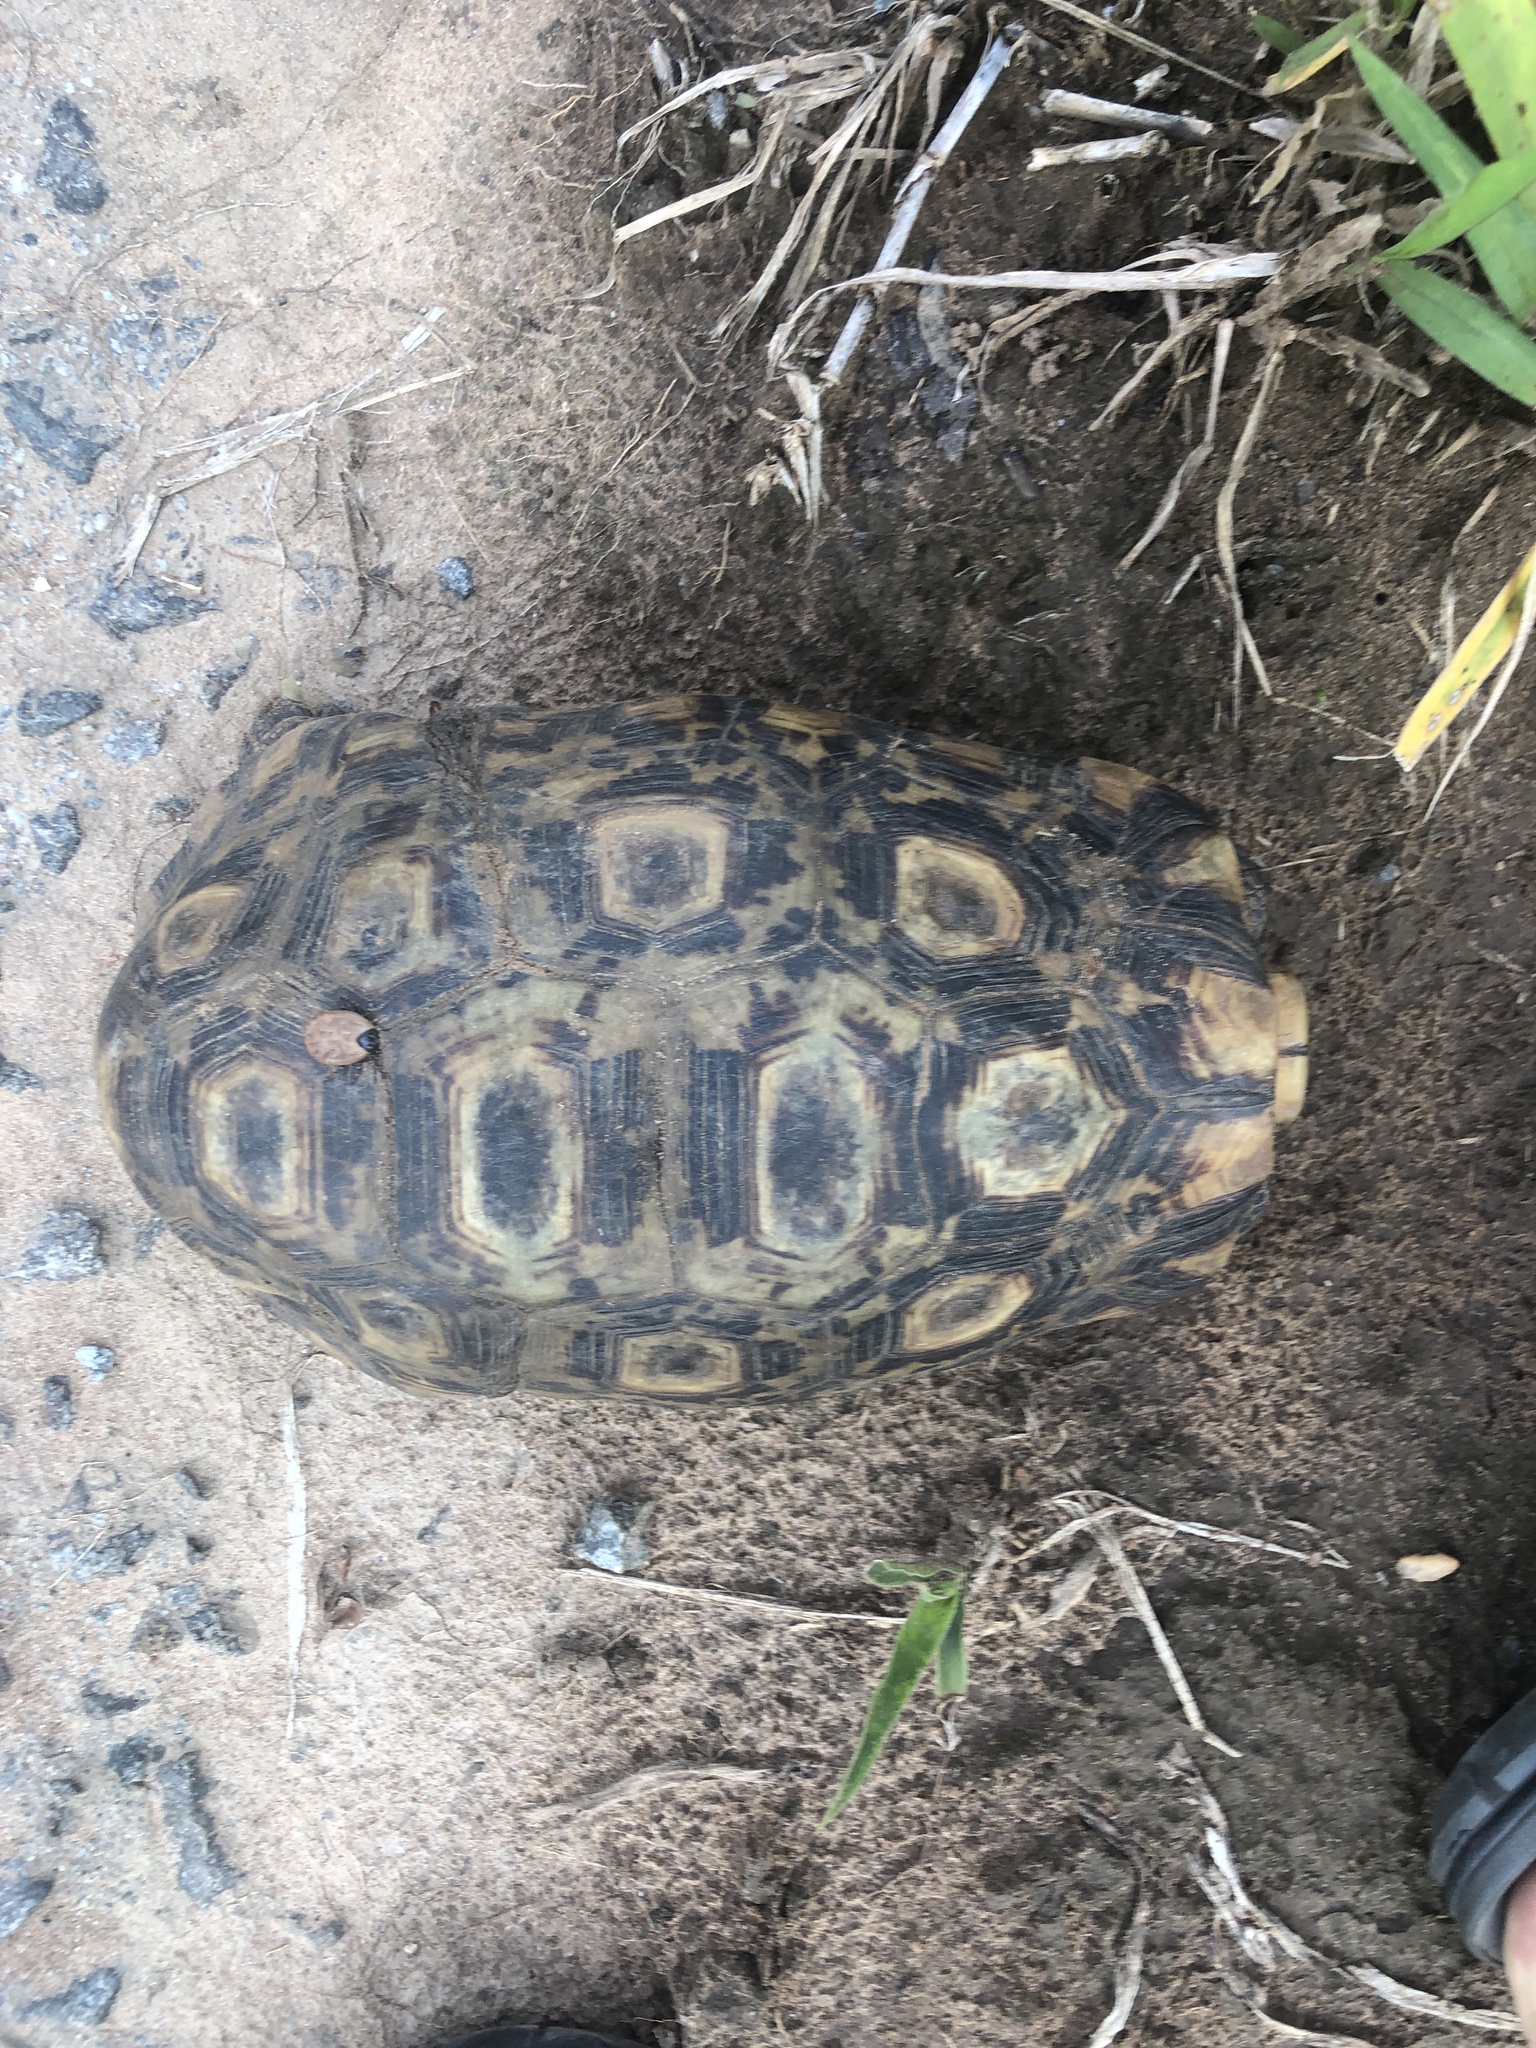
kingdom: Animalia
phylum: Chordata
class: Testudines
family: Testudinidae
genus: Kinixys
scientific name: Kinixys belliana
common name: Bells hinge-back tortoise
